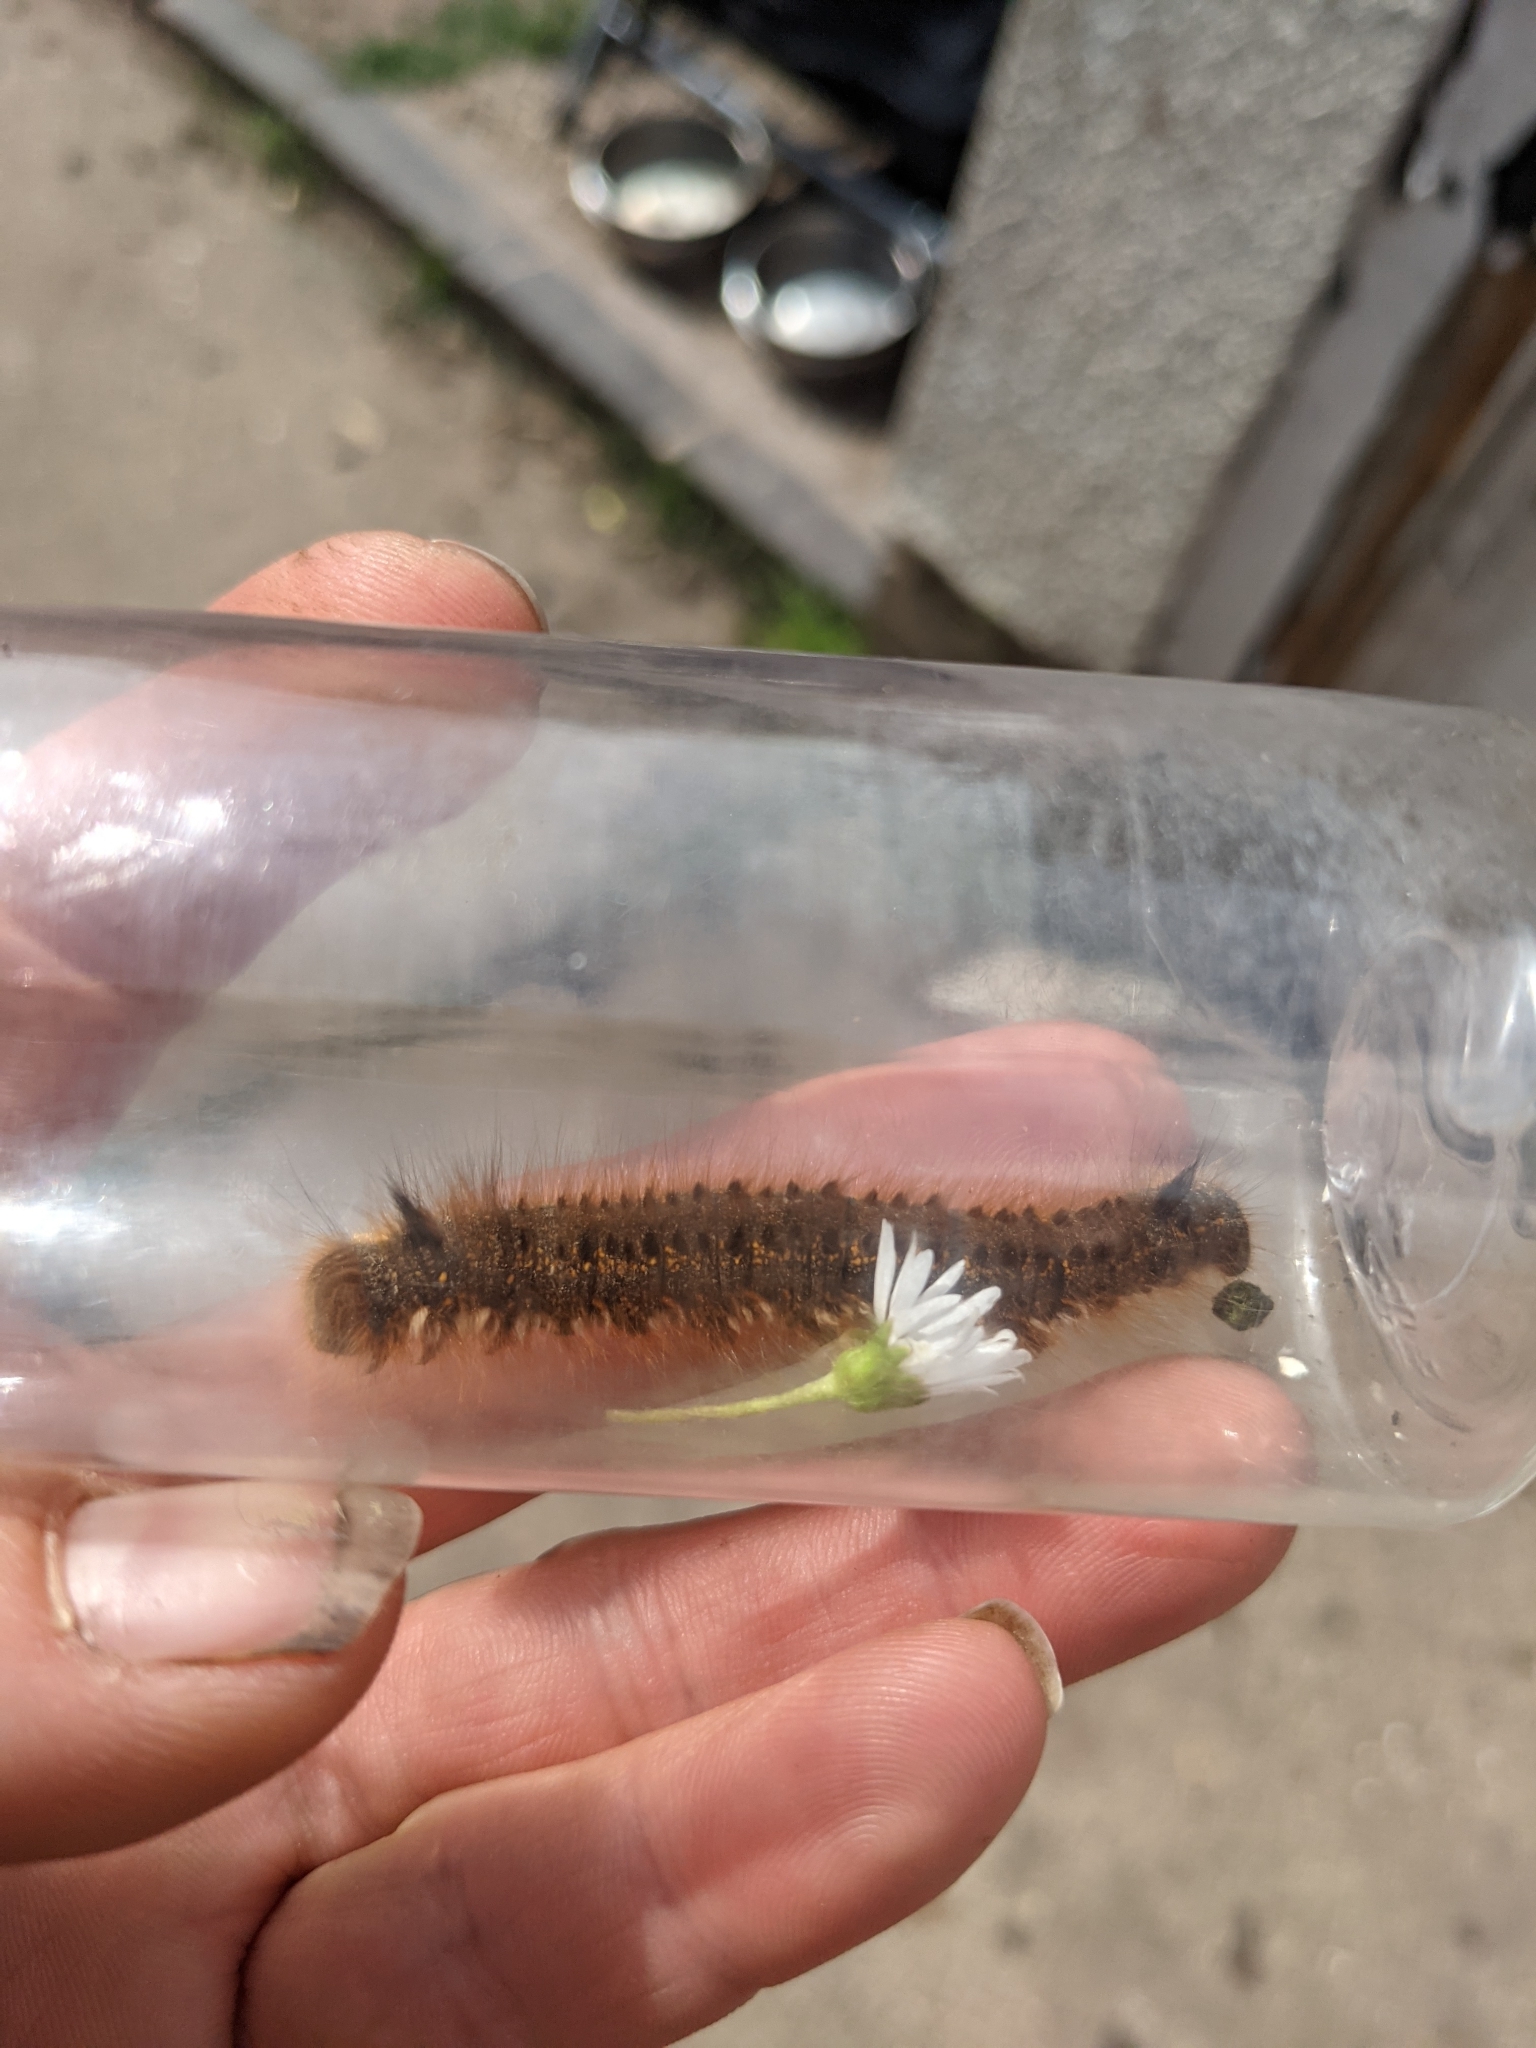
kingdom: Animalia
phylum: Arthropoda
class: Insecta
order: Lepidoptera
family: Lasiocampidae
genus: Euthrix
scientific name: Euthrix potatoria
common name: Drinker
